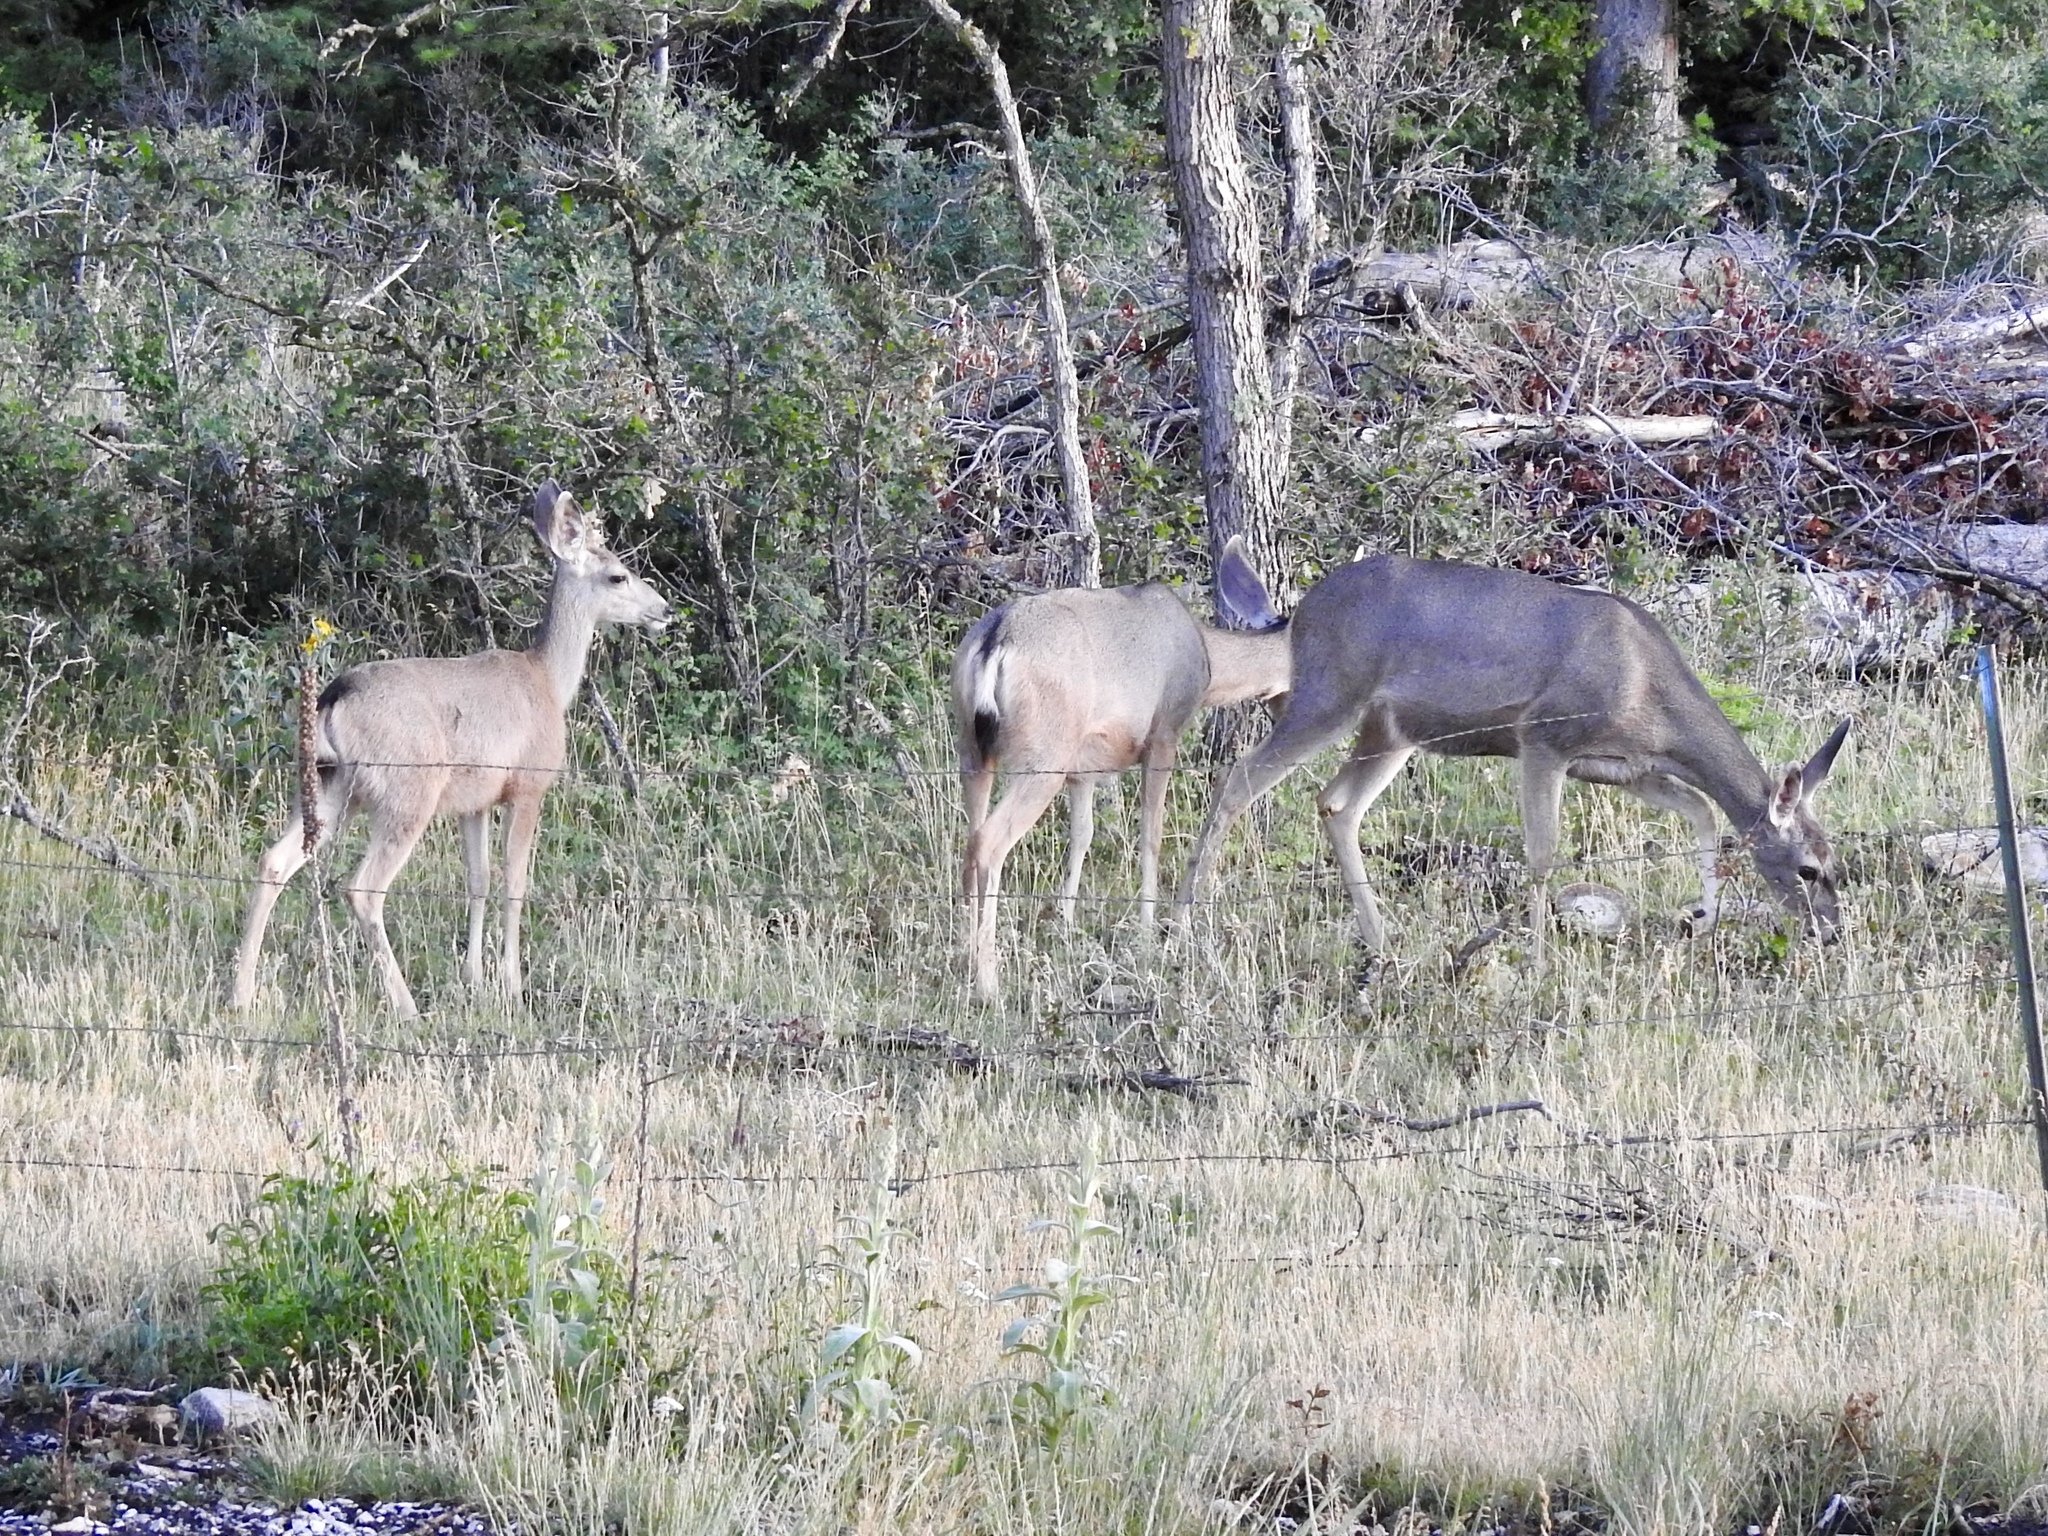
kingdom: Animalia
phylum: Chordata
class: Mammalia
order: Artiodactyla
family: Cervidae
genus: Odocoileus
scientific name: Odocoileus hemionus
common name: Mule deer
